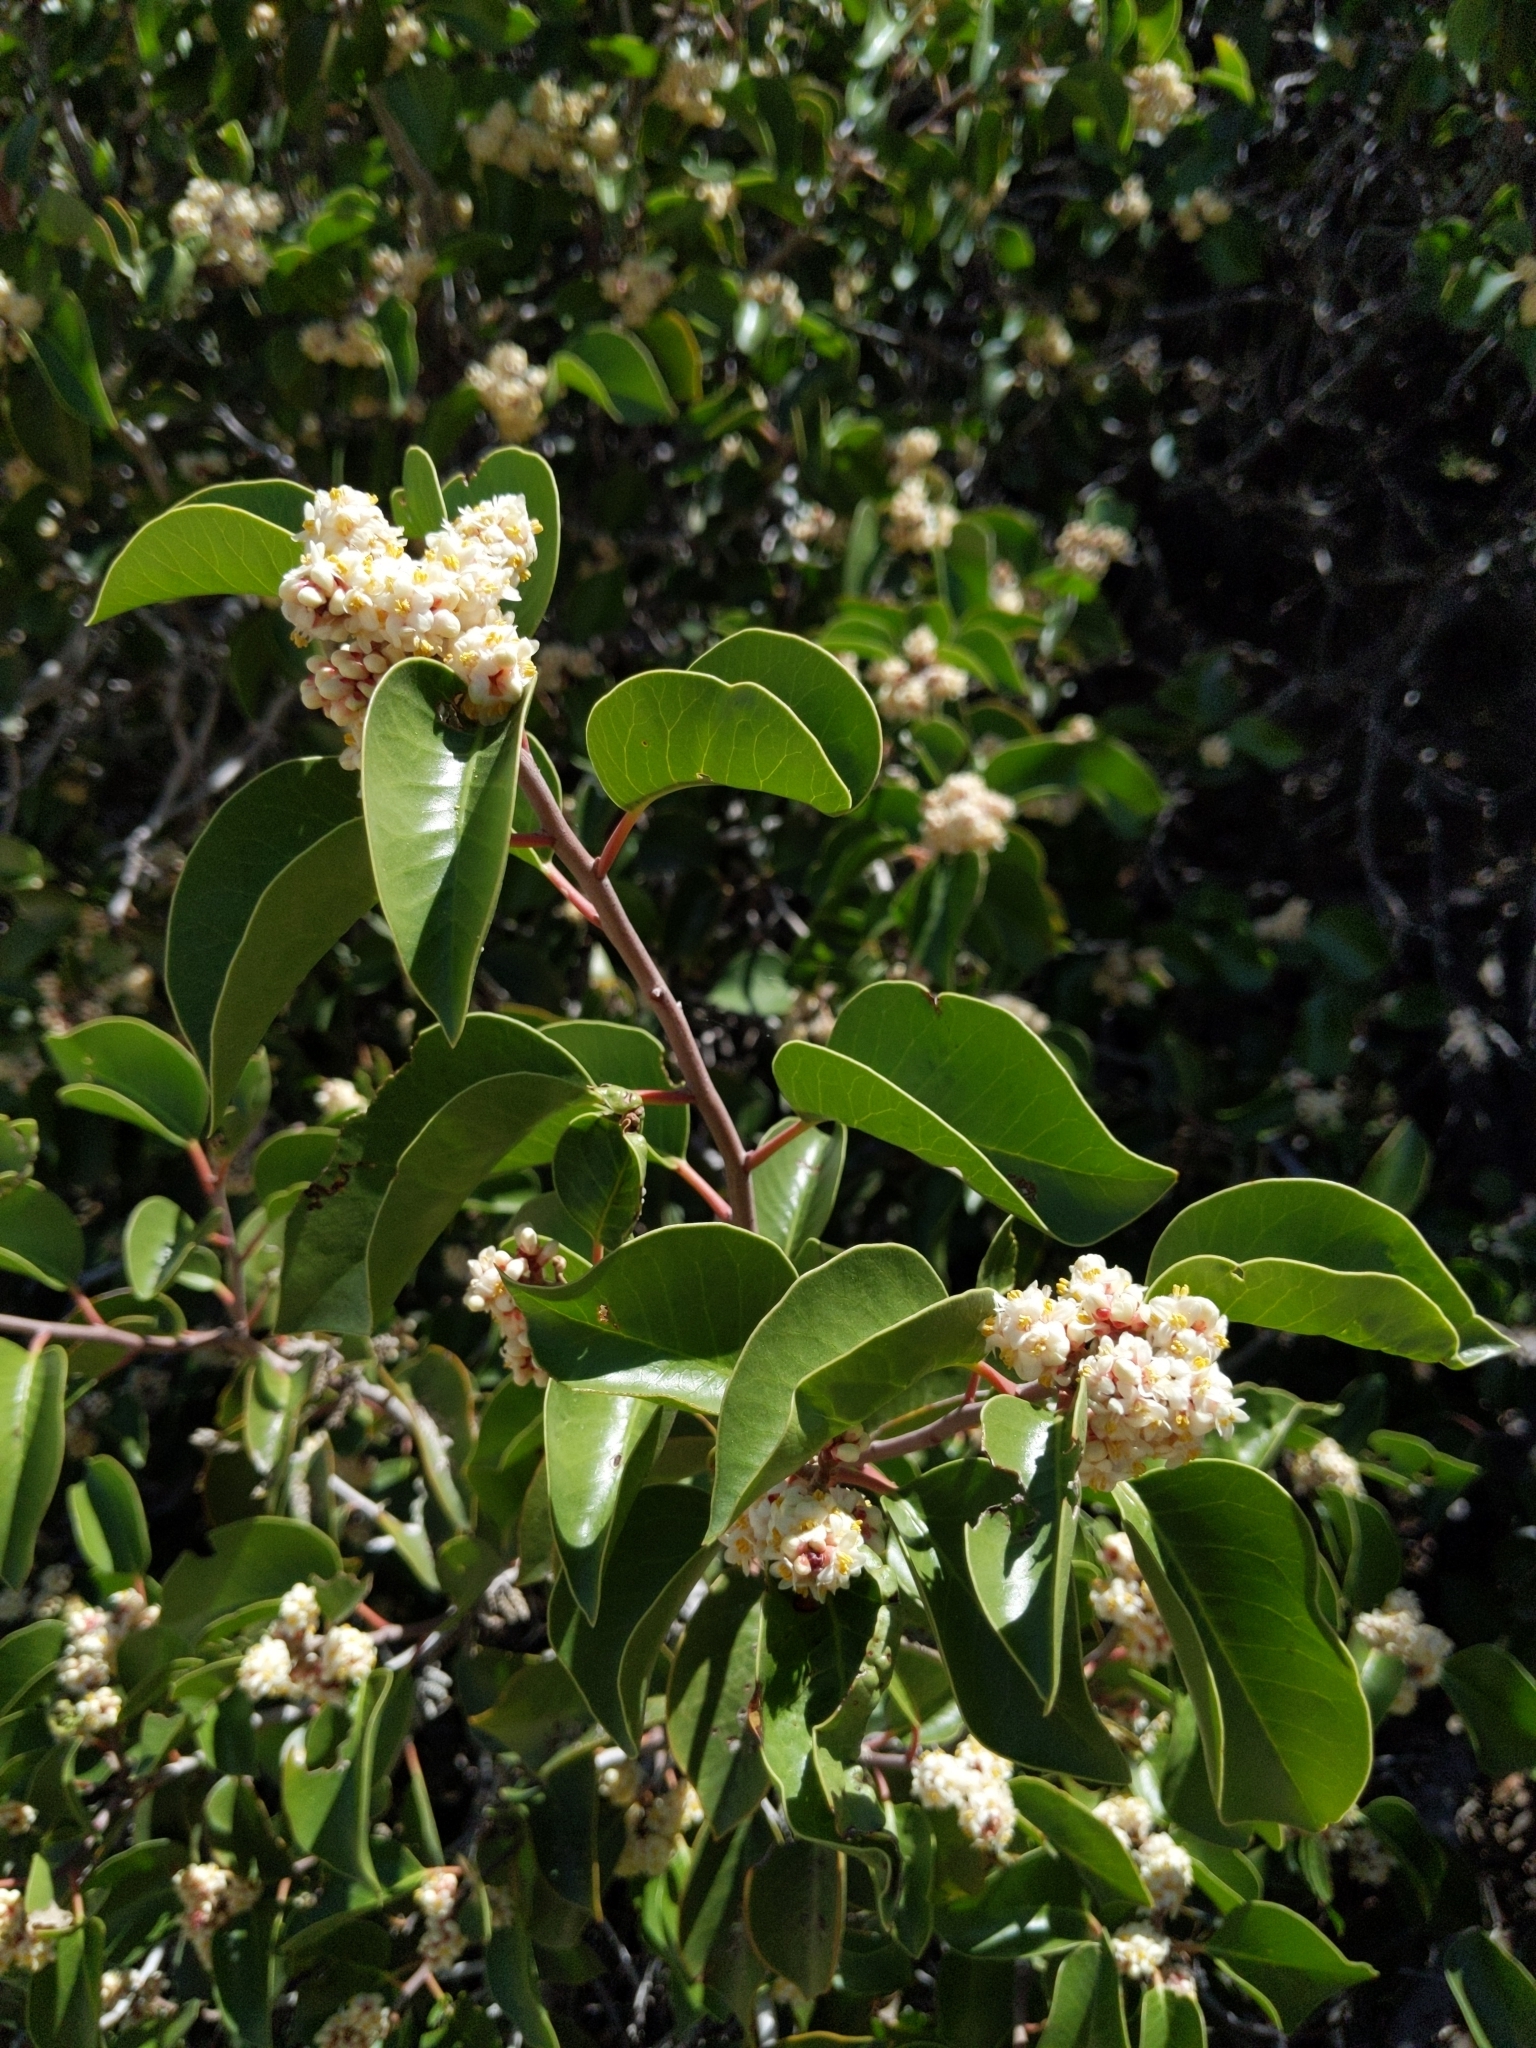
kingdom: Plantae
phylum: Tracheophyta
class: Magnoliopsida
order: Sapindales
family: Anacardiaceae
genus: Rhus
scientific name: Rhus ovata
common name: Sugar sumac
